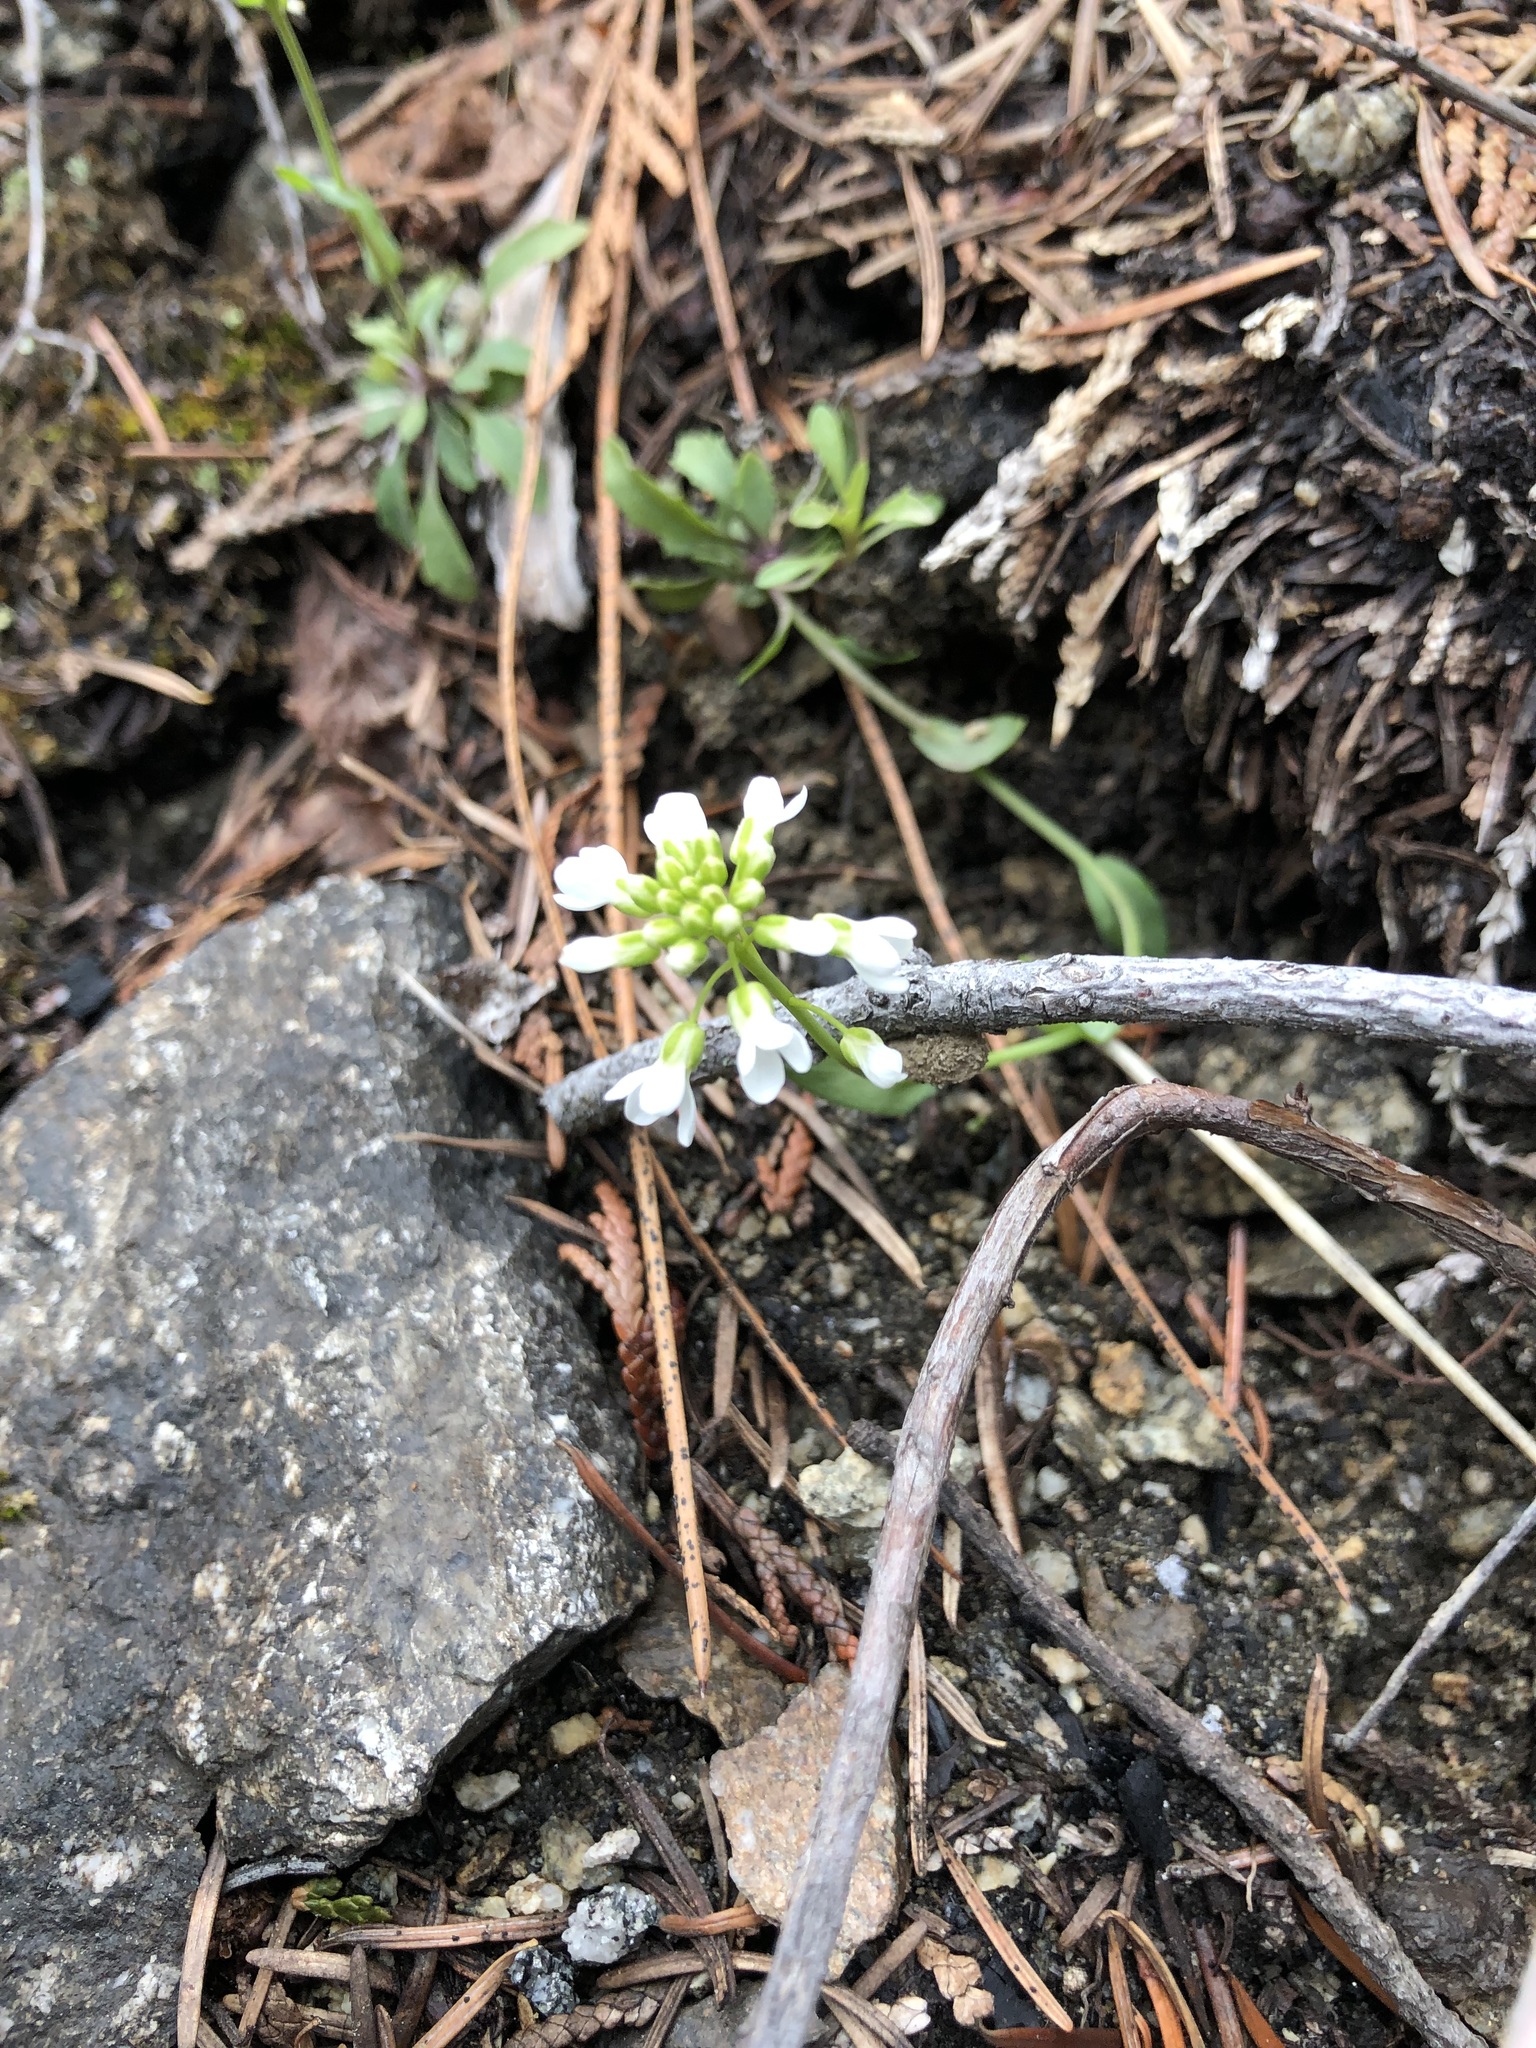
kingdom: Plantae
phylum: Tracheophyta
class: Magnoliopsida
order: Brassicales
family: Brassicaceae
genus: Noccaea
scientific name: Noccaea fendleri
